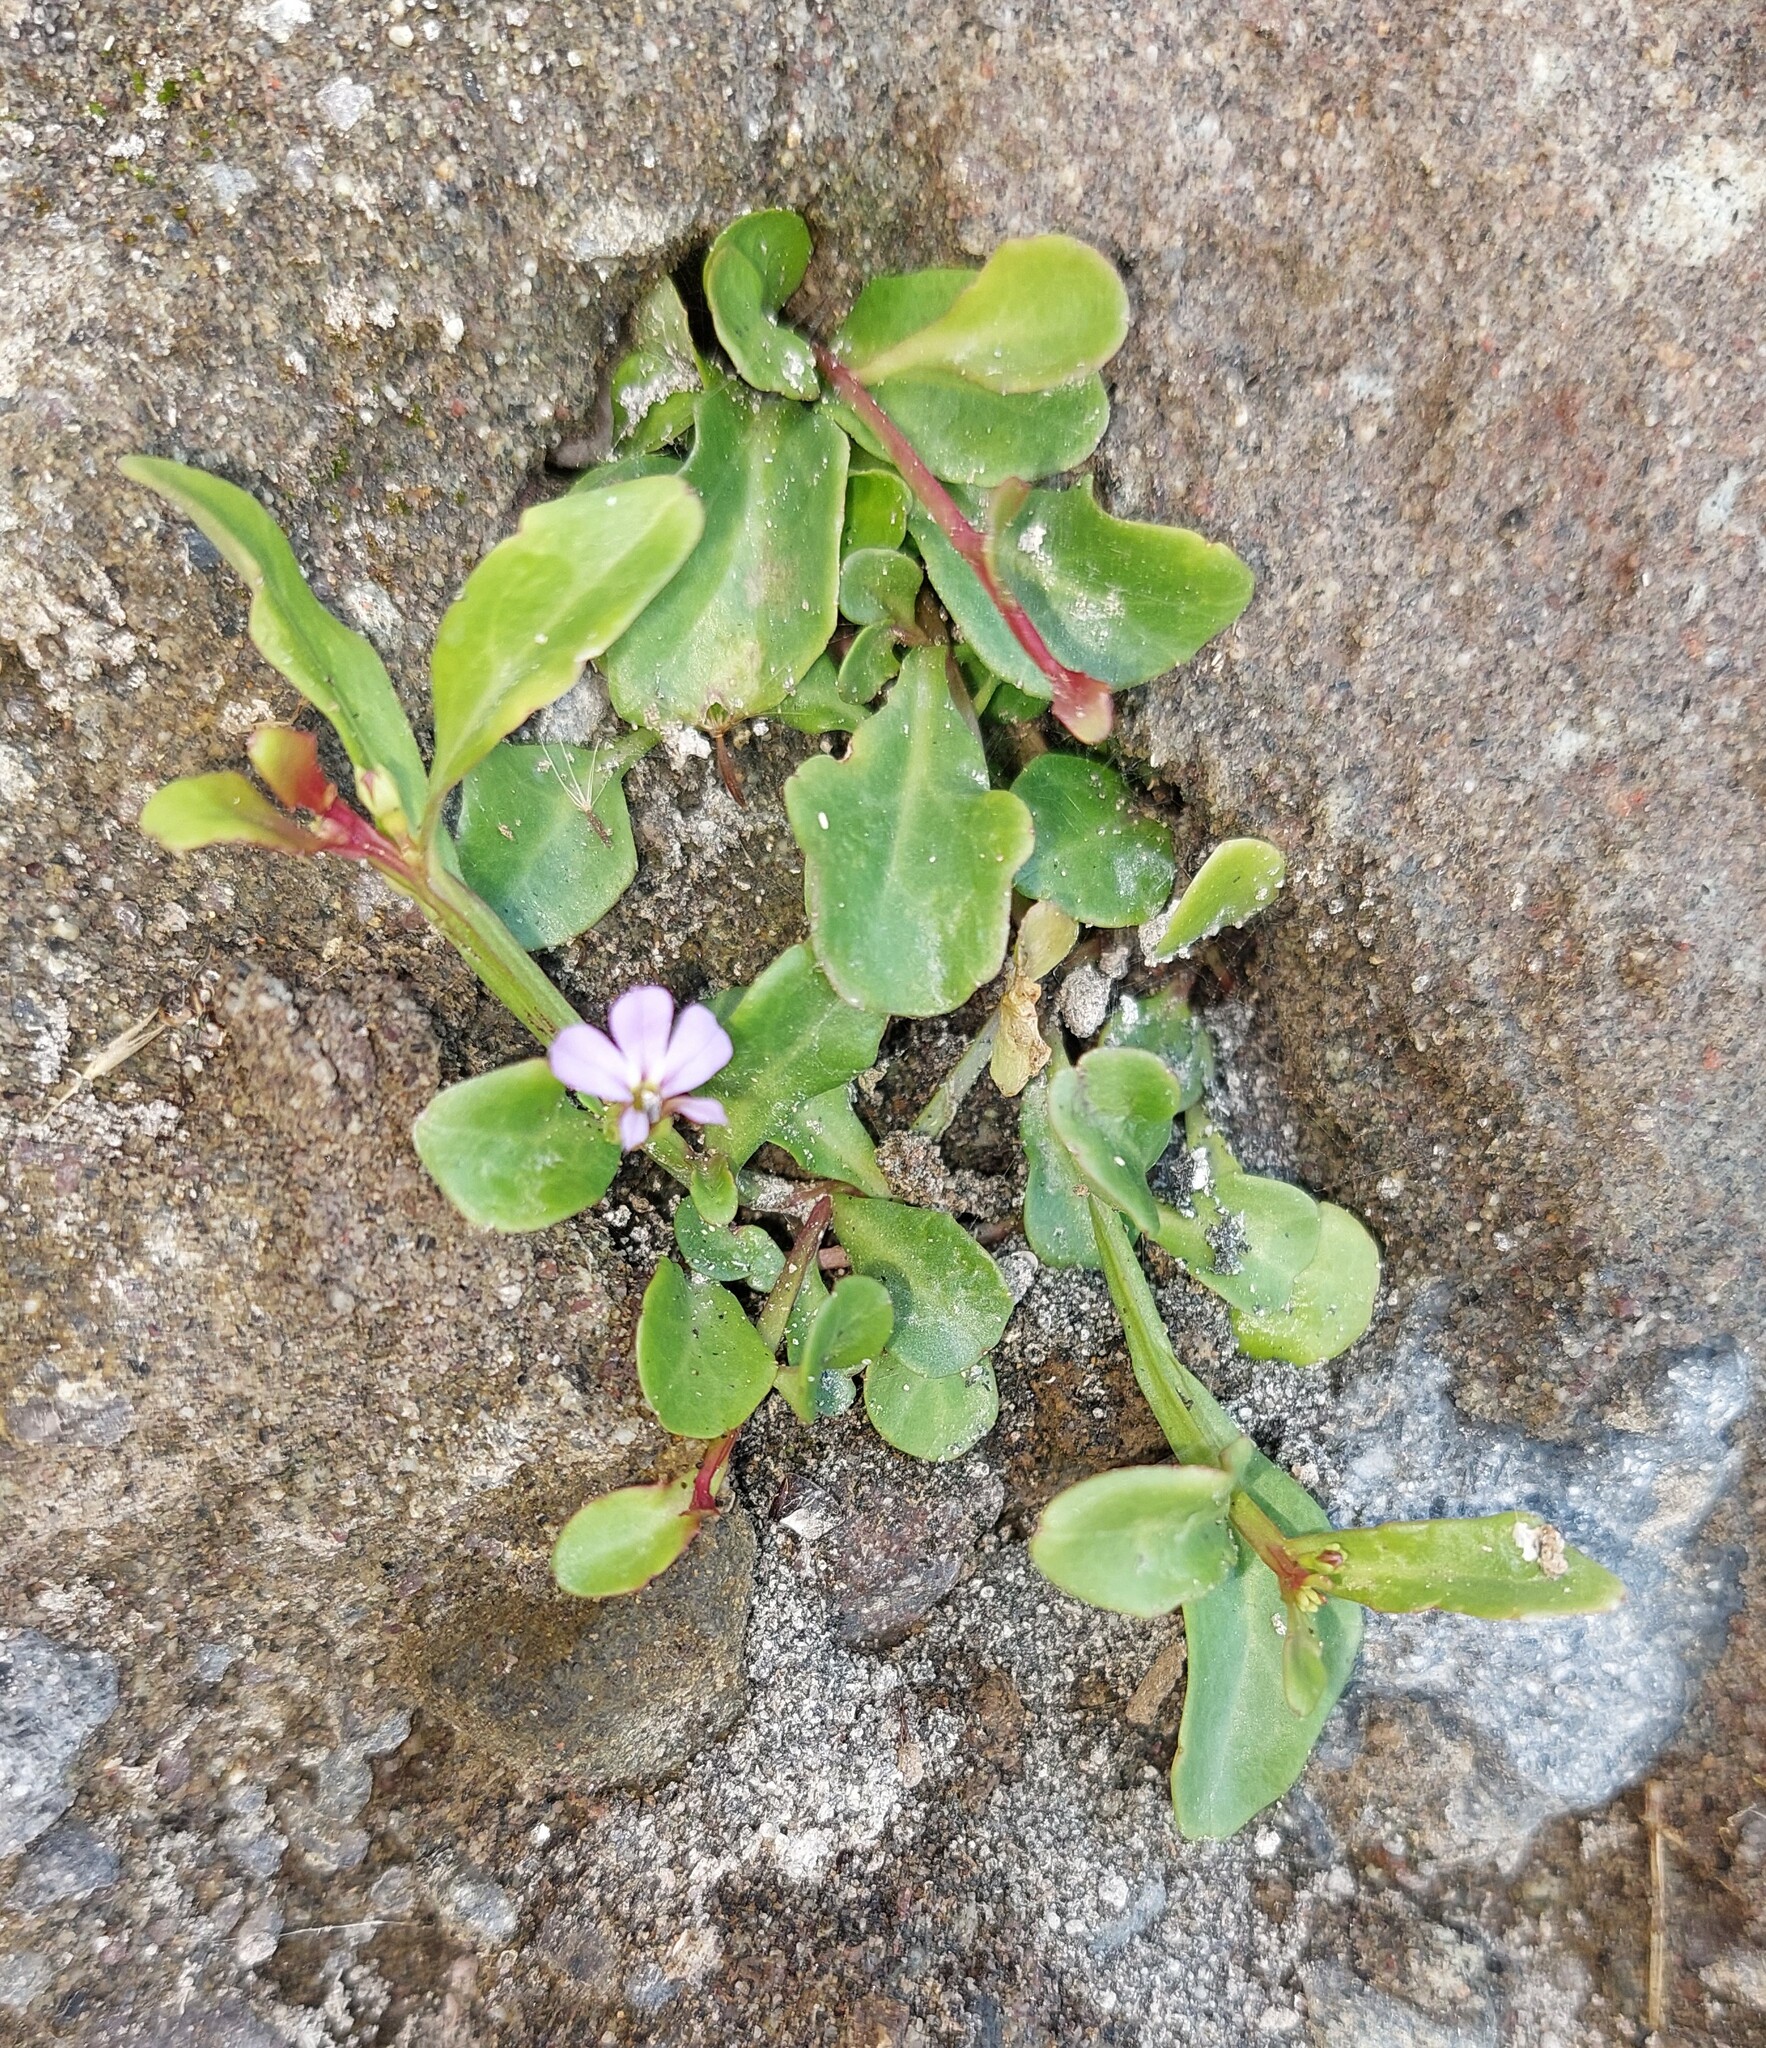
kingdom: Plantae
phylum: Tracheophyta
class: Magnoliopsida
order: Asterales
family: Campanulaceae
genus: Lobelia
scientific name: Lobelia anceps
